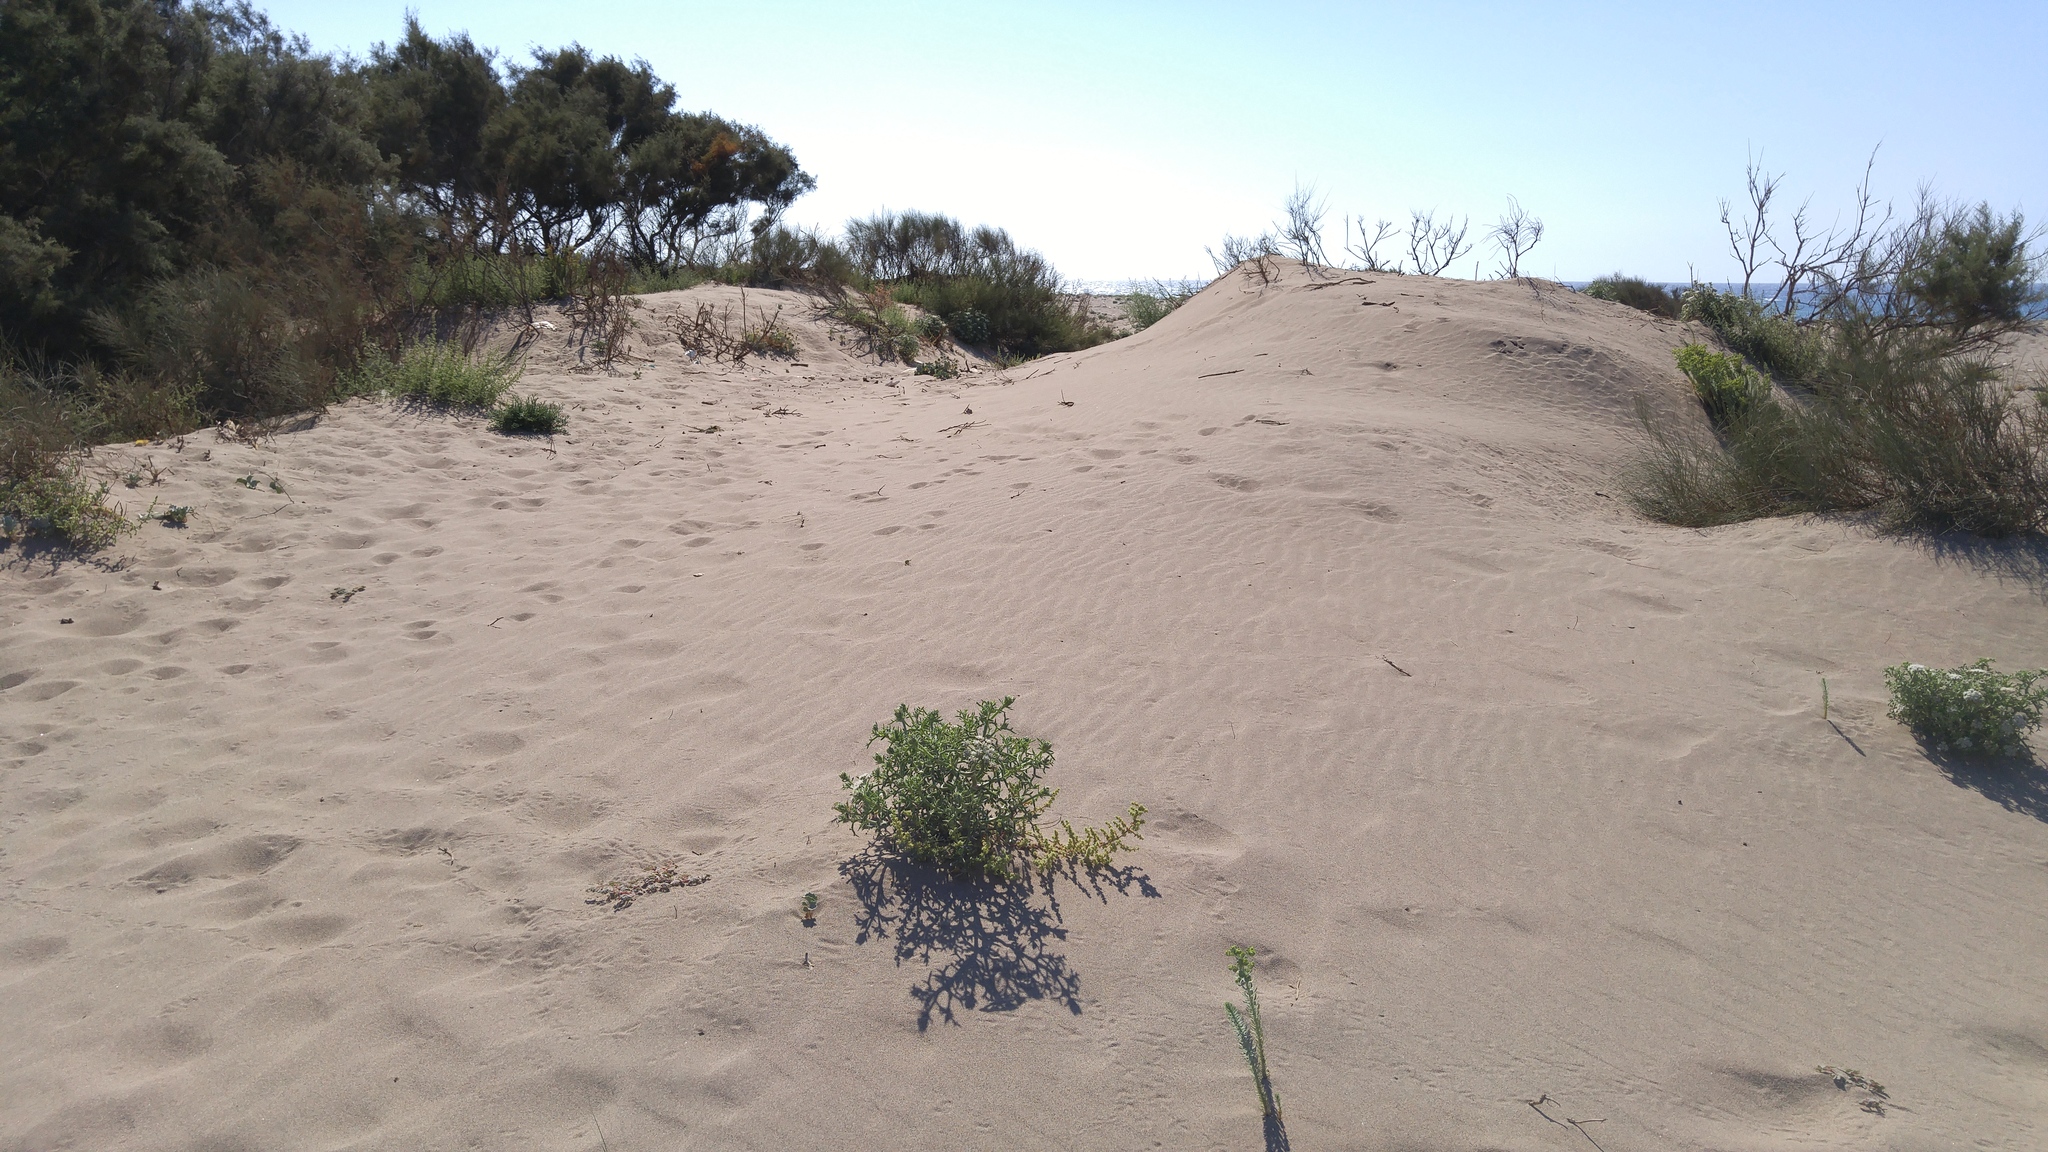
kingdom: Plantae
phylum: Tracheophyta
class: Magnoliopsida
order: Caryophyllales
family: Amaranthaceae
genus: Salsola
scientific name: Salsola kali
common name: Saltwort
